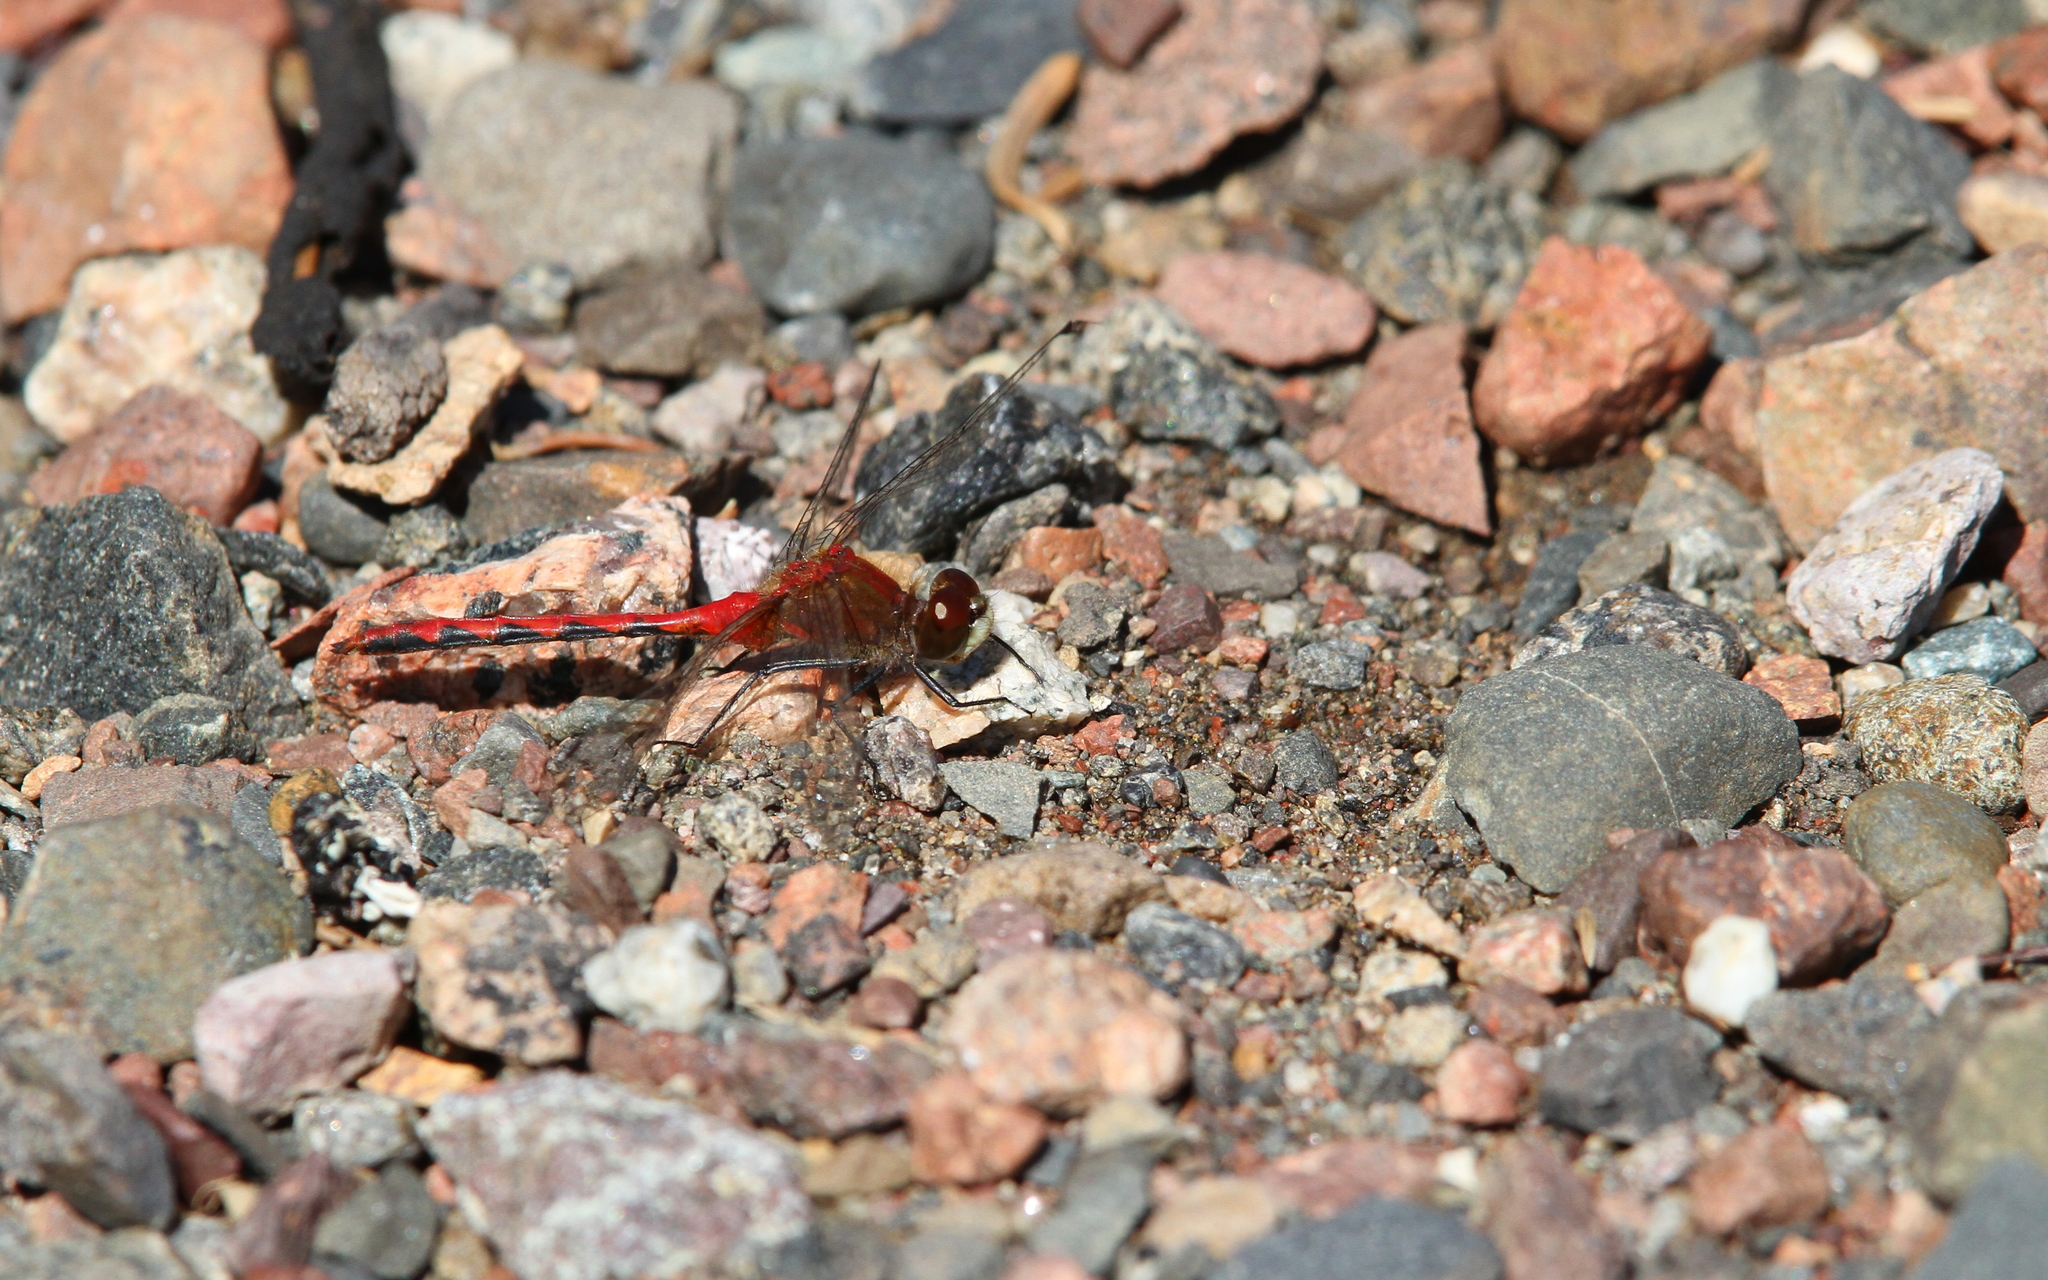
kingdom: Animalia
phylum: Arthropoda
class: Insecta
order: Odonata
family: Libellulidae
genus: Sympetrum
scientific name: Sympetrum obtrusum
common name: White-faced meadowhawk
